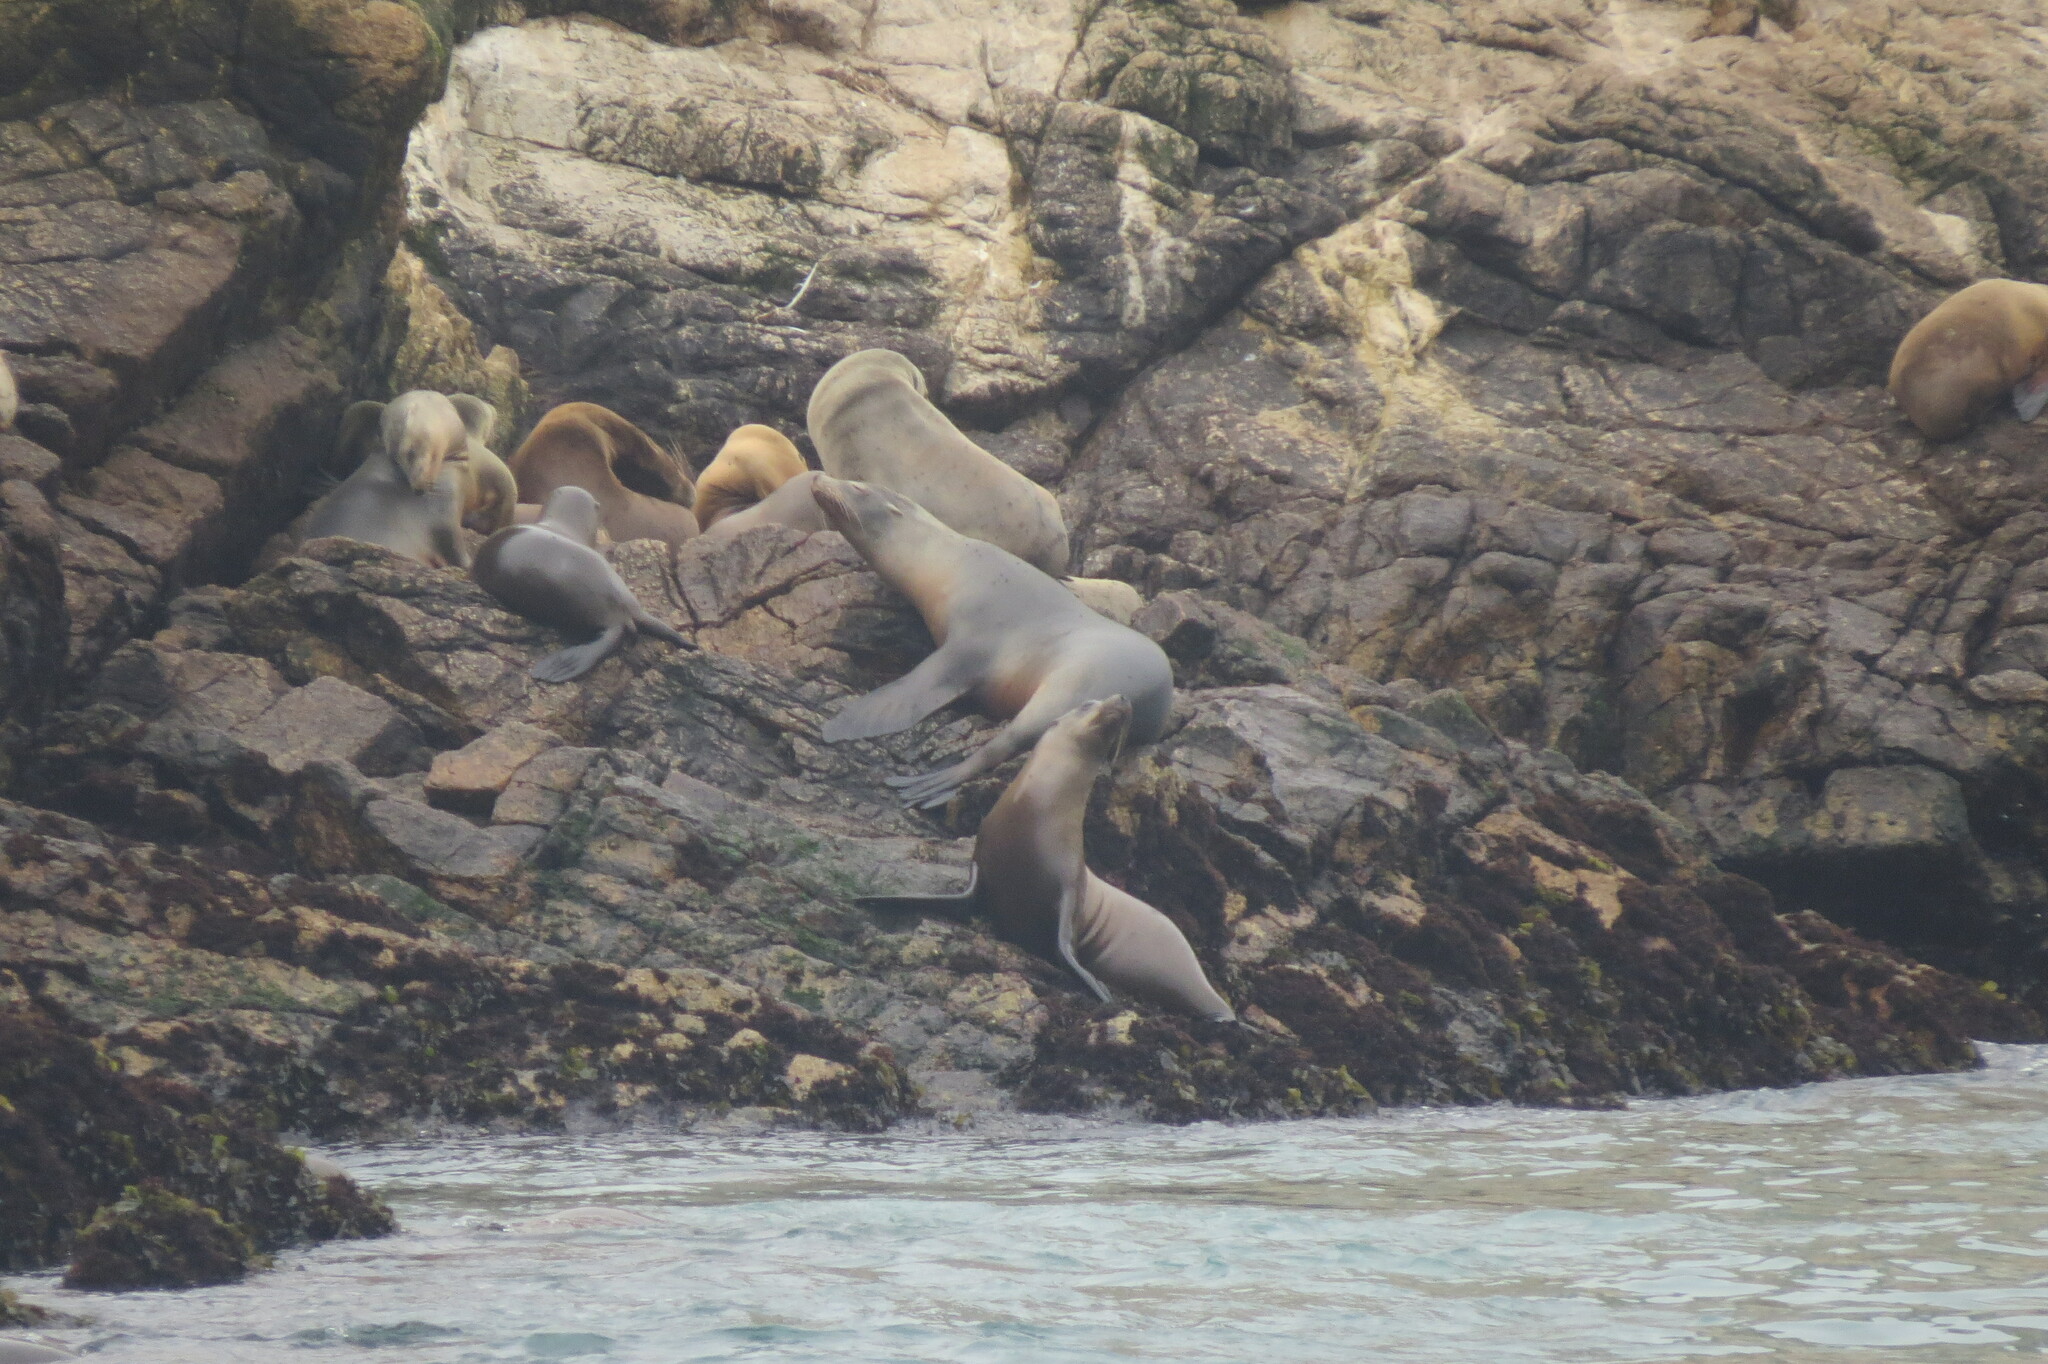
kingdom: Animalia
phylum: Chordata
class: Mammalia
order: Carnivora
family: Otariidae
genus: Zalophus
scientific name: Zalophus californianus
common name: California sea lion
